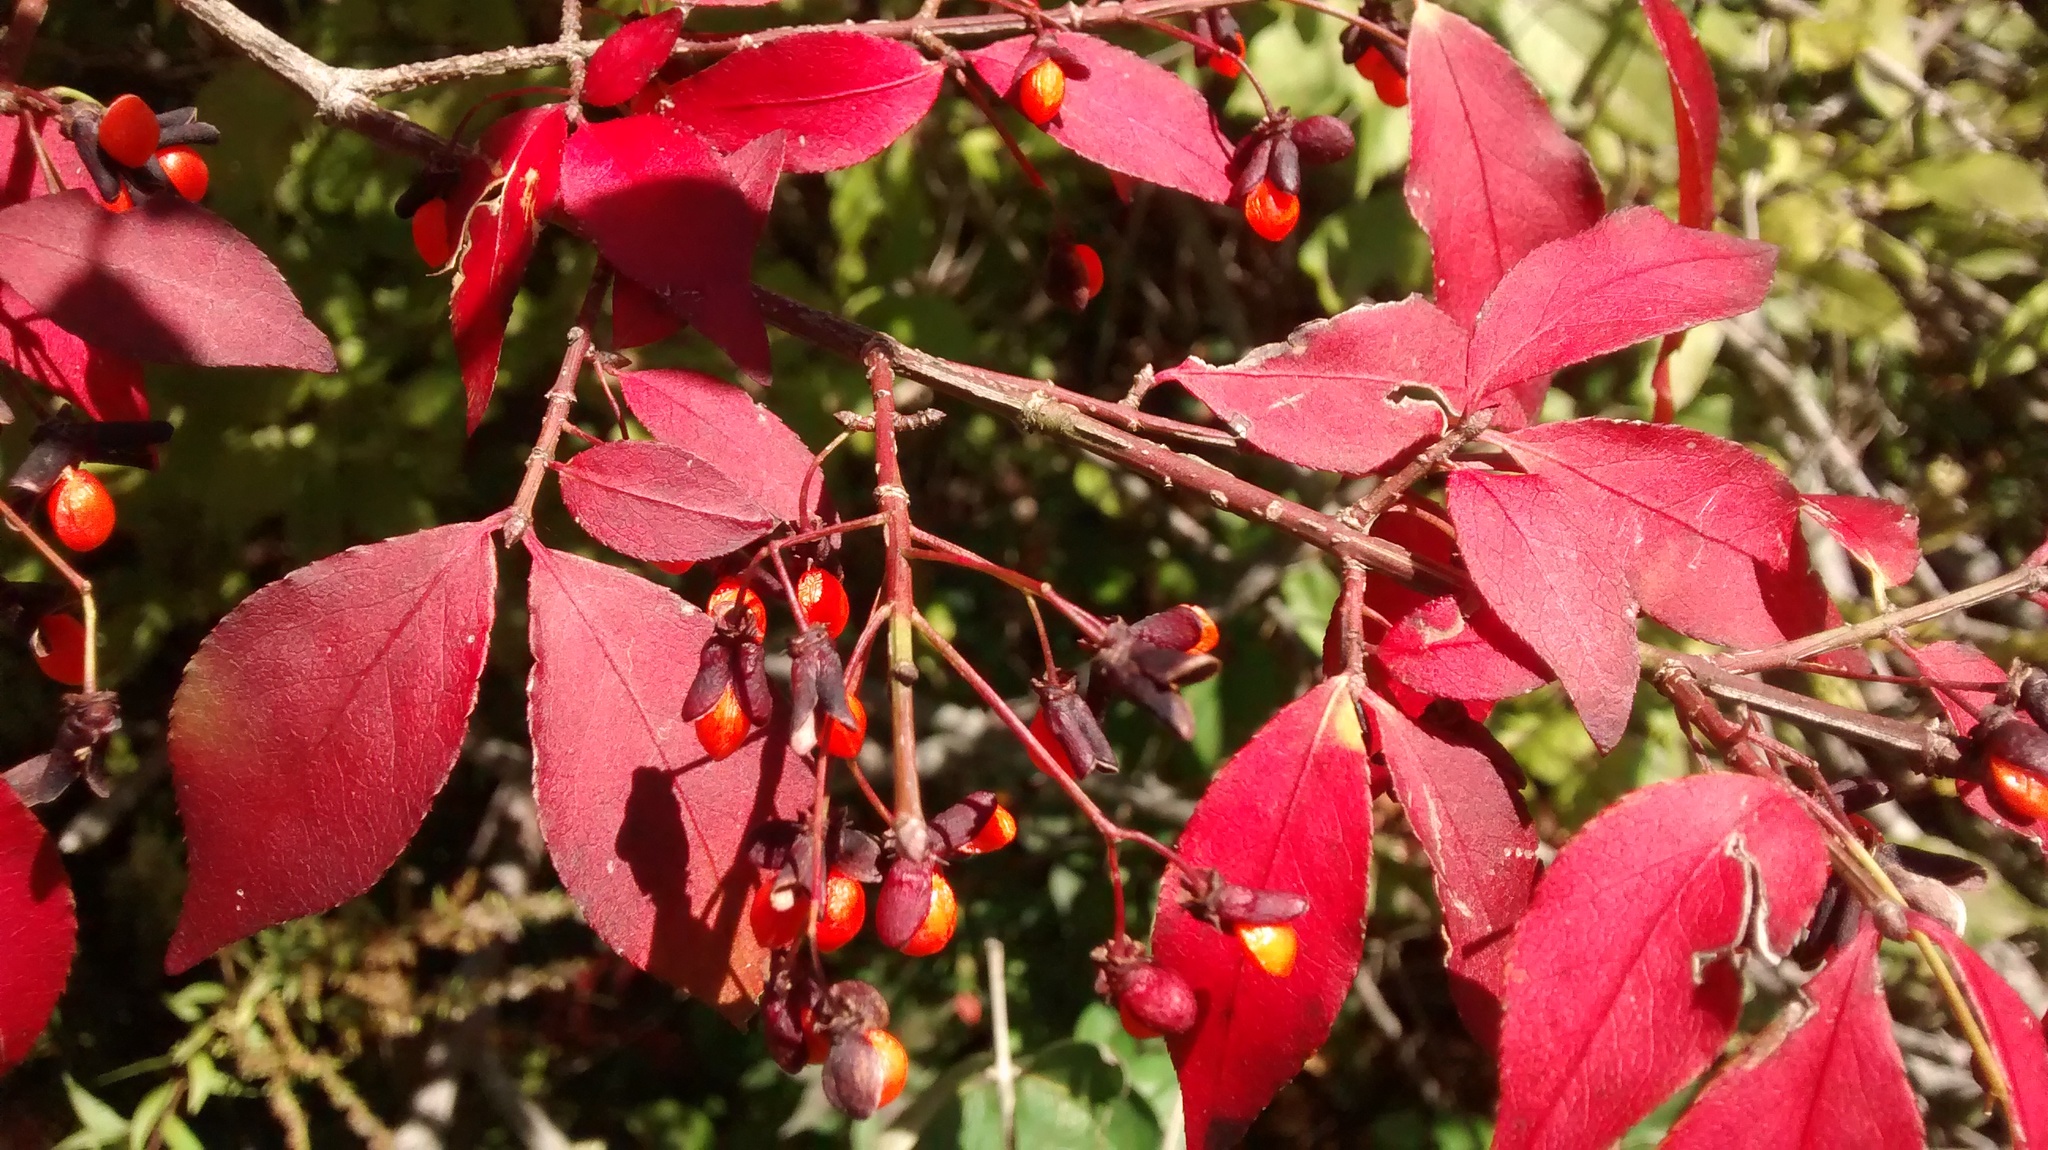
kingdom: Plantae
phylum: Tracheophyta
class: Magnoliopsida
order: Celastrales
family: Celastraceae
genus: Euonymus
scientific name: Euonymus alatus
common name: Winged euonymus
